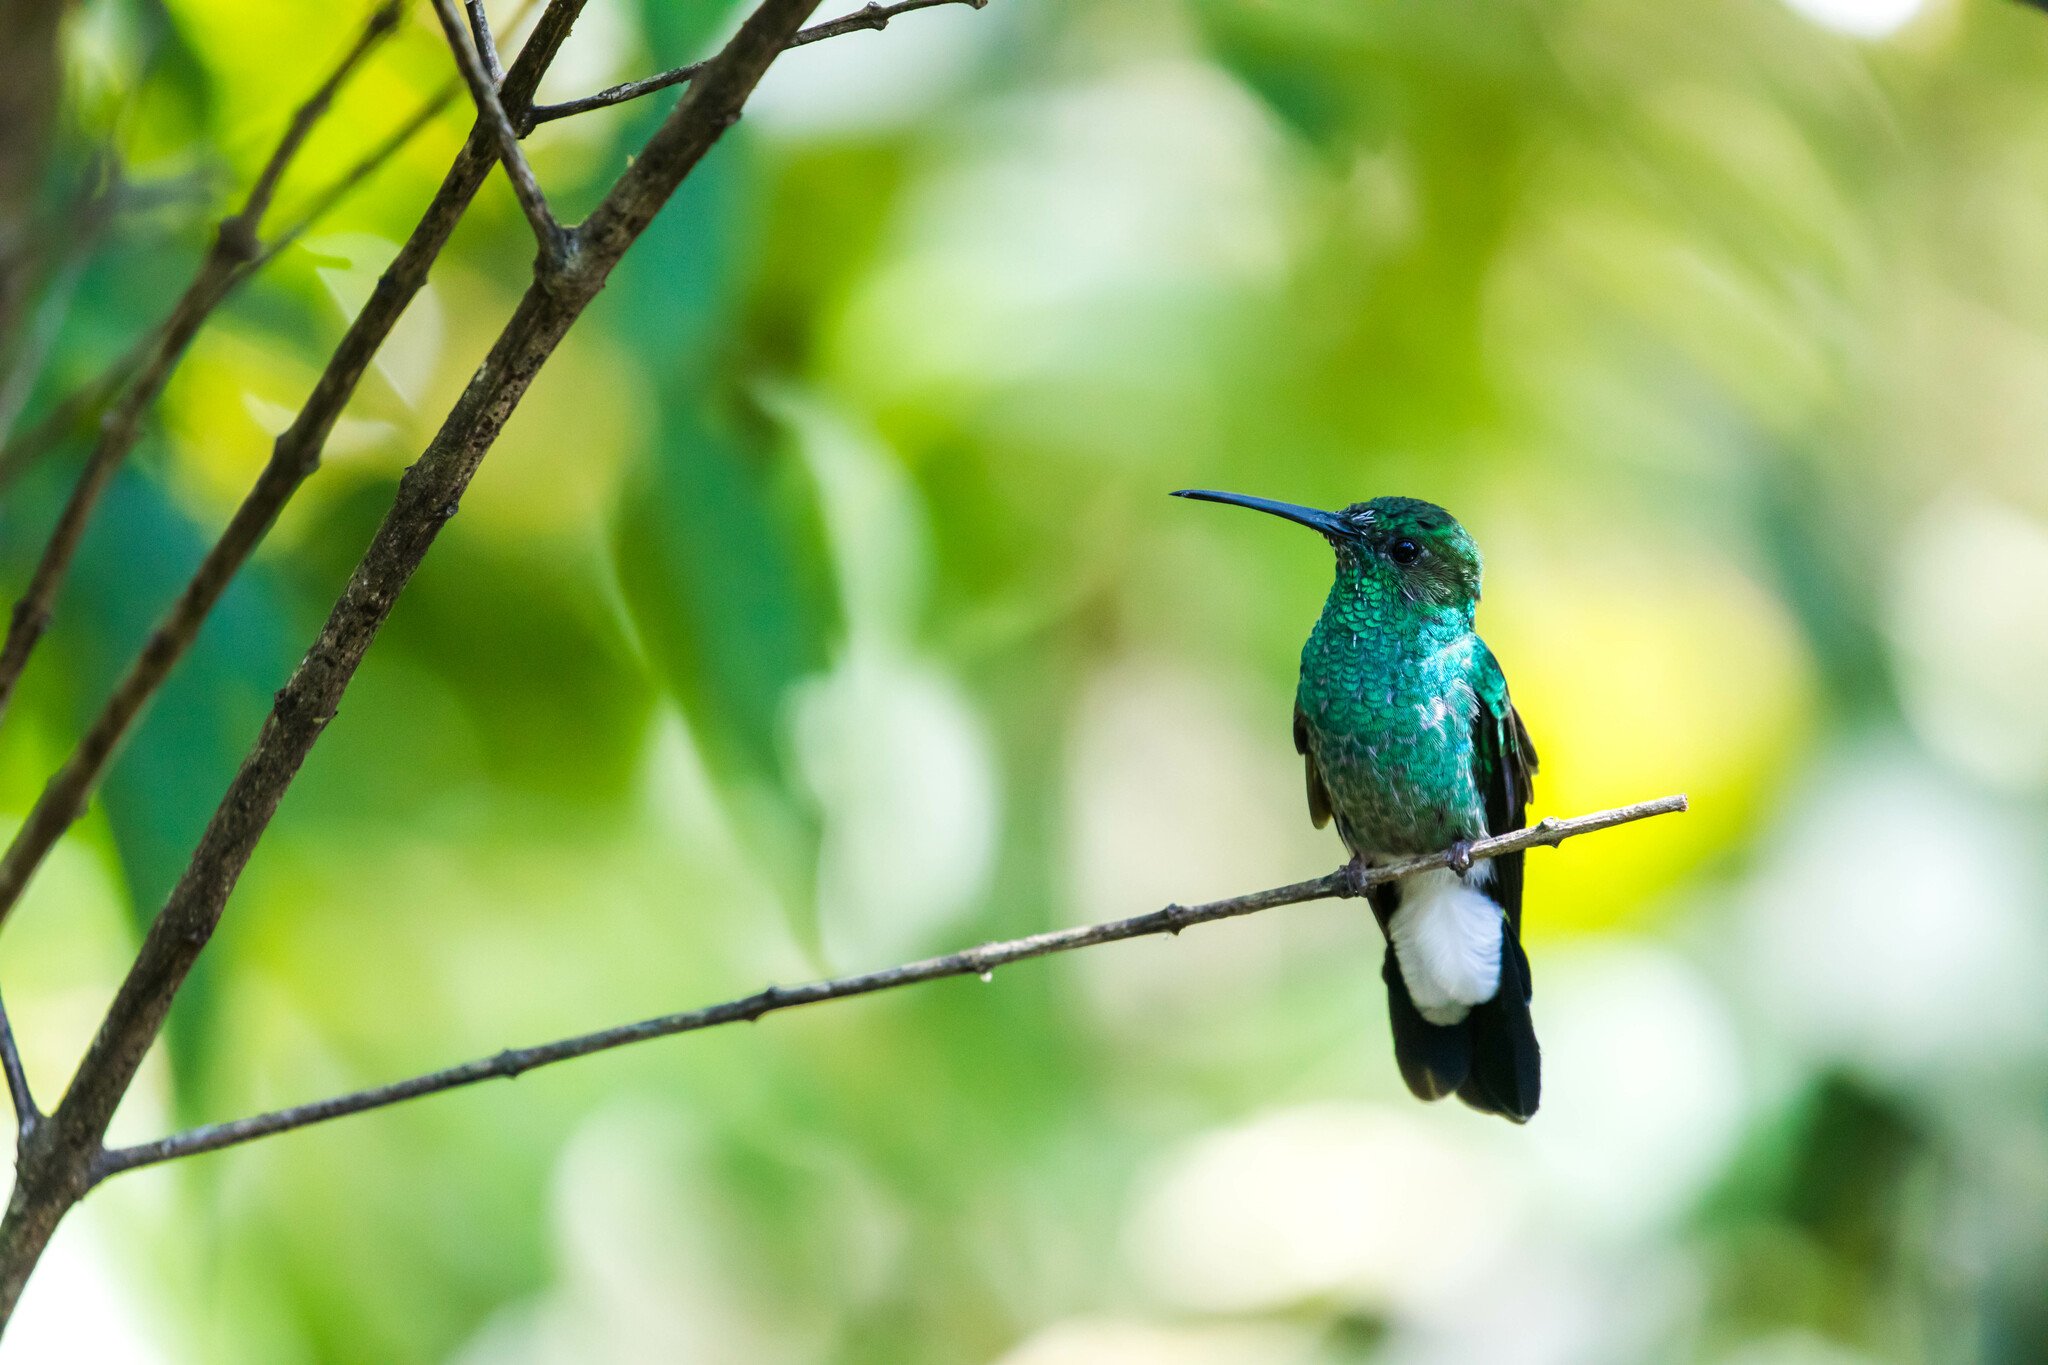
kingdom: Animalia
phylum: Chordata
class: Aves
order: Apodiformes
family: Trochilidae
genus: Chalybura
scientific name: Chalybura buffonii
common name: White-vented plumeleteer
